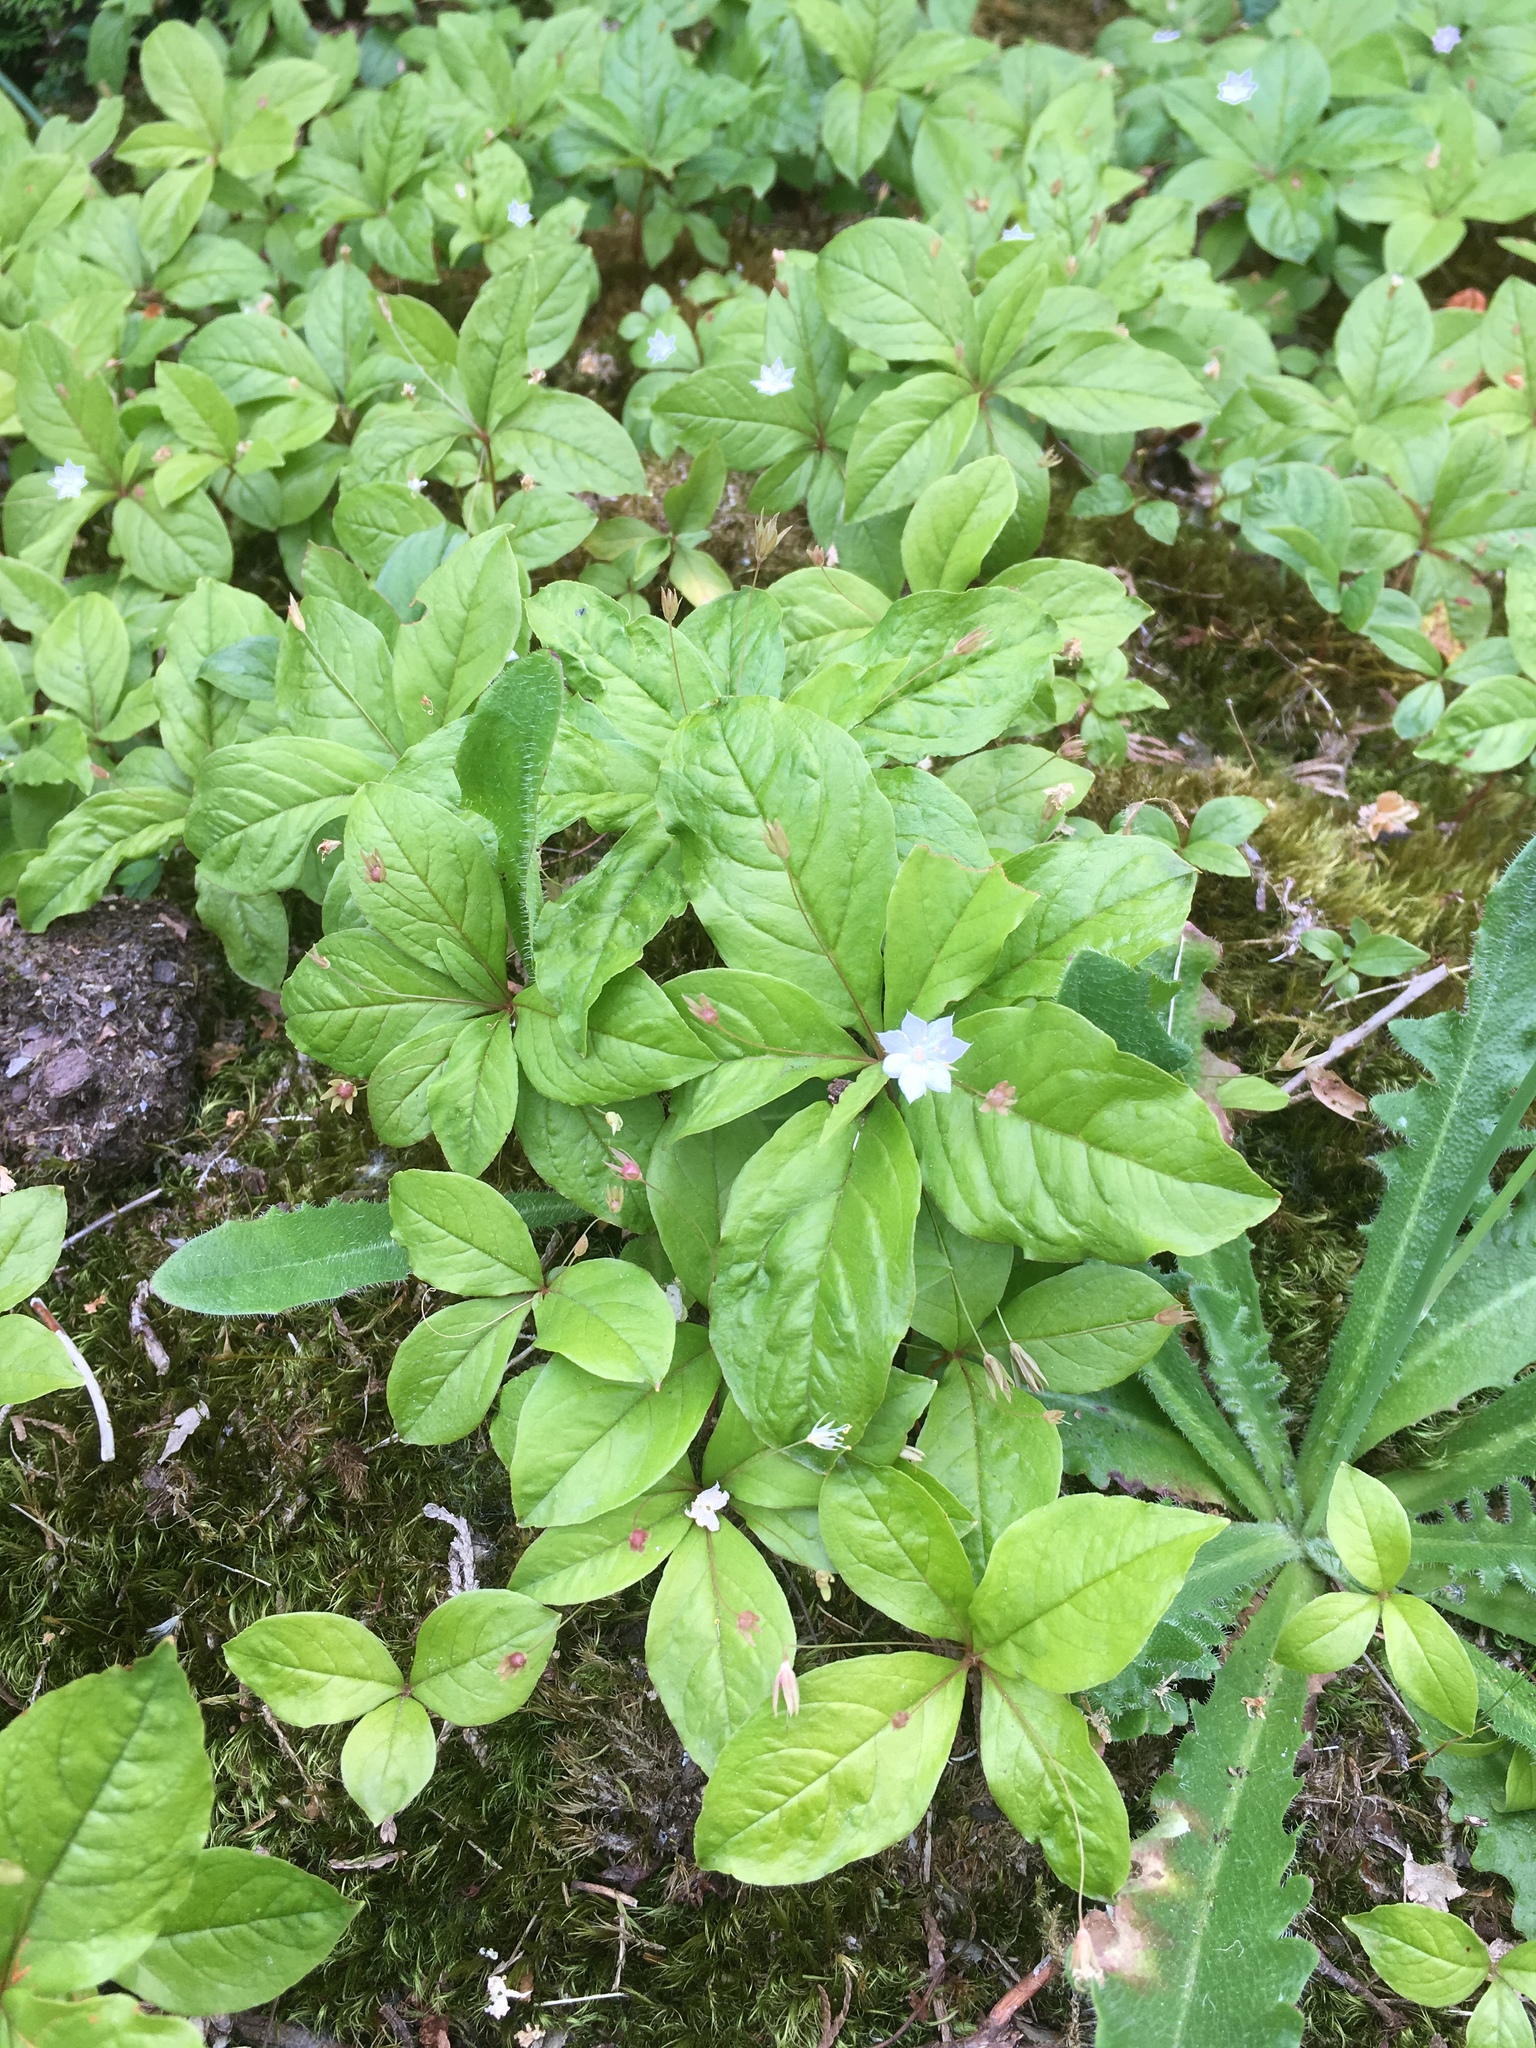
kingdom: Plantae
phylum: Tracheophyta
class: Magnoliopsida
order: Ericales
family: Primulaceae
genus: Lysimachia
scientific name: Lysimachia latifolia
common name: Pacific starflower
